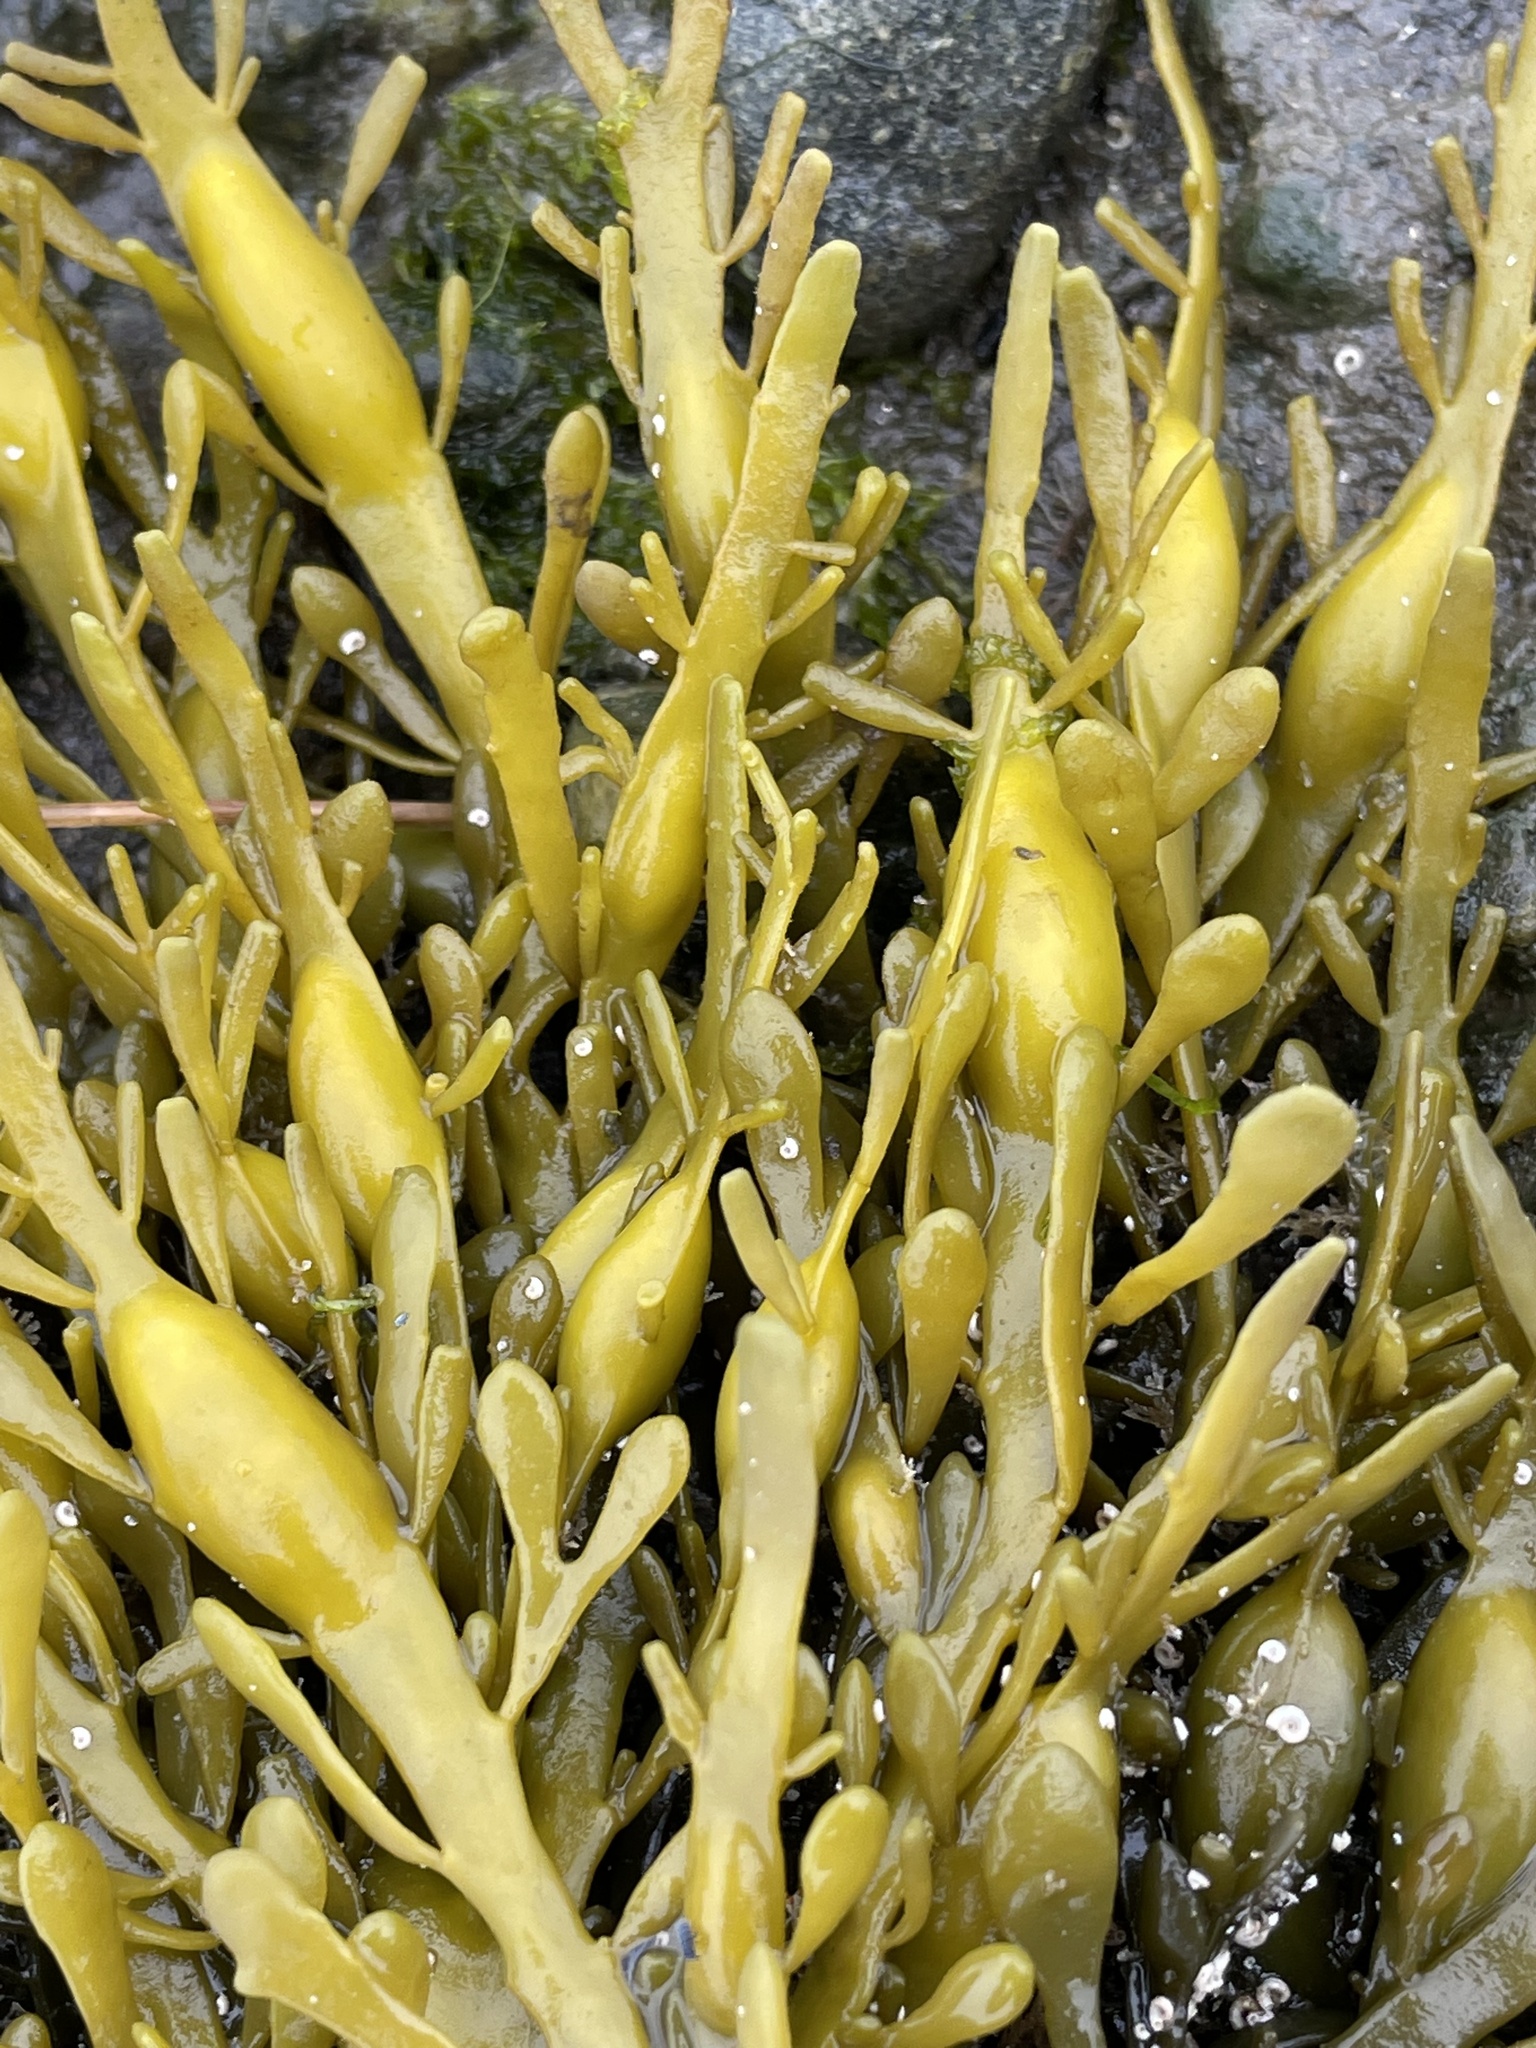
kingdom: Chromista
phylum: Ochrophyta
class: Phaeophyceae
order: Fucales
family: Fucaceae
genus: Ascophyllum
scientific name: Ascophyllum nodosum
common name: Knotted wrack
